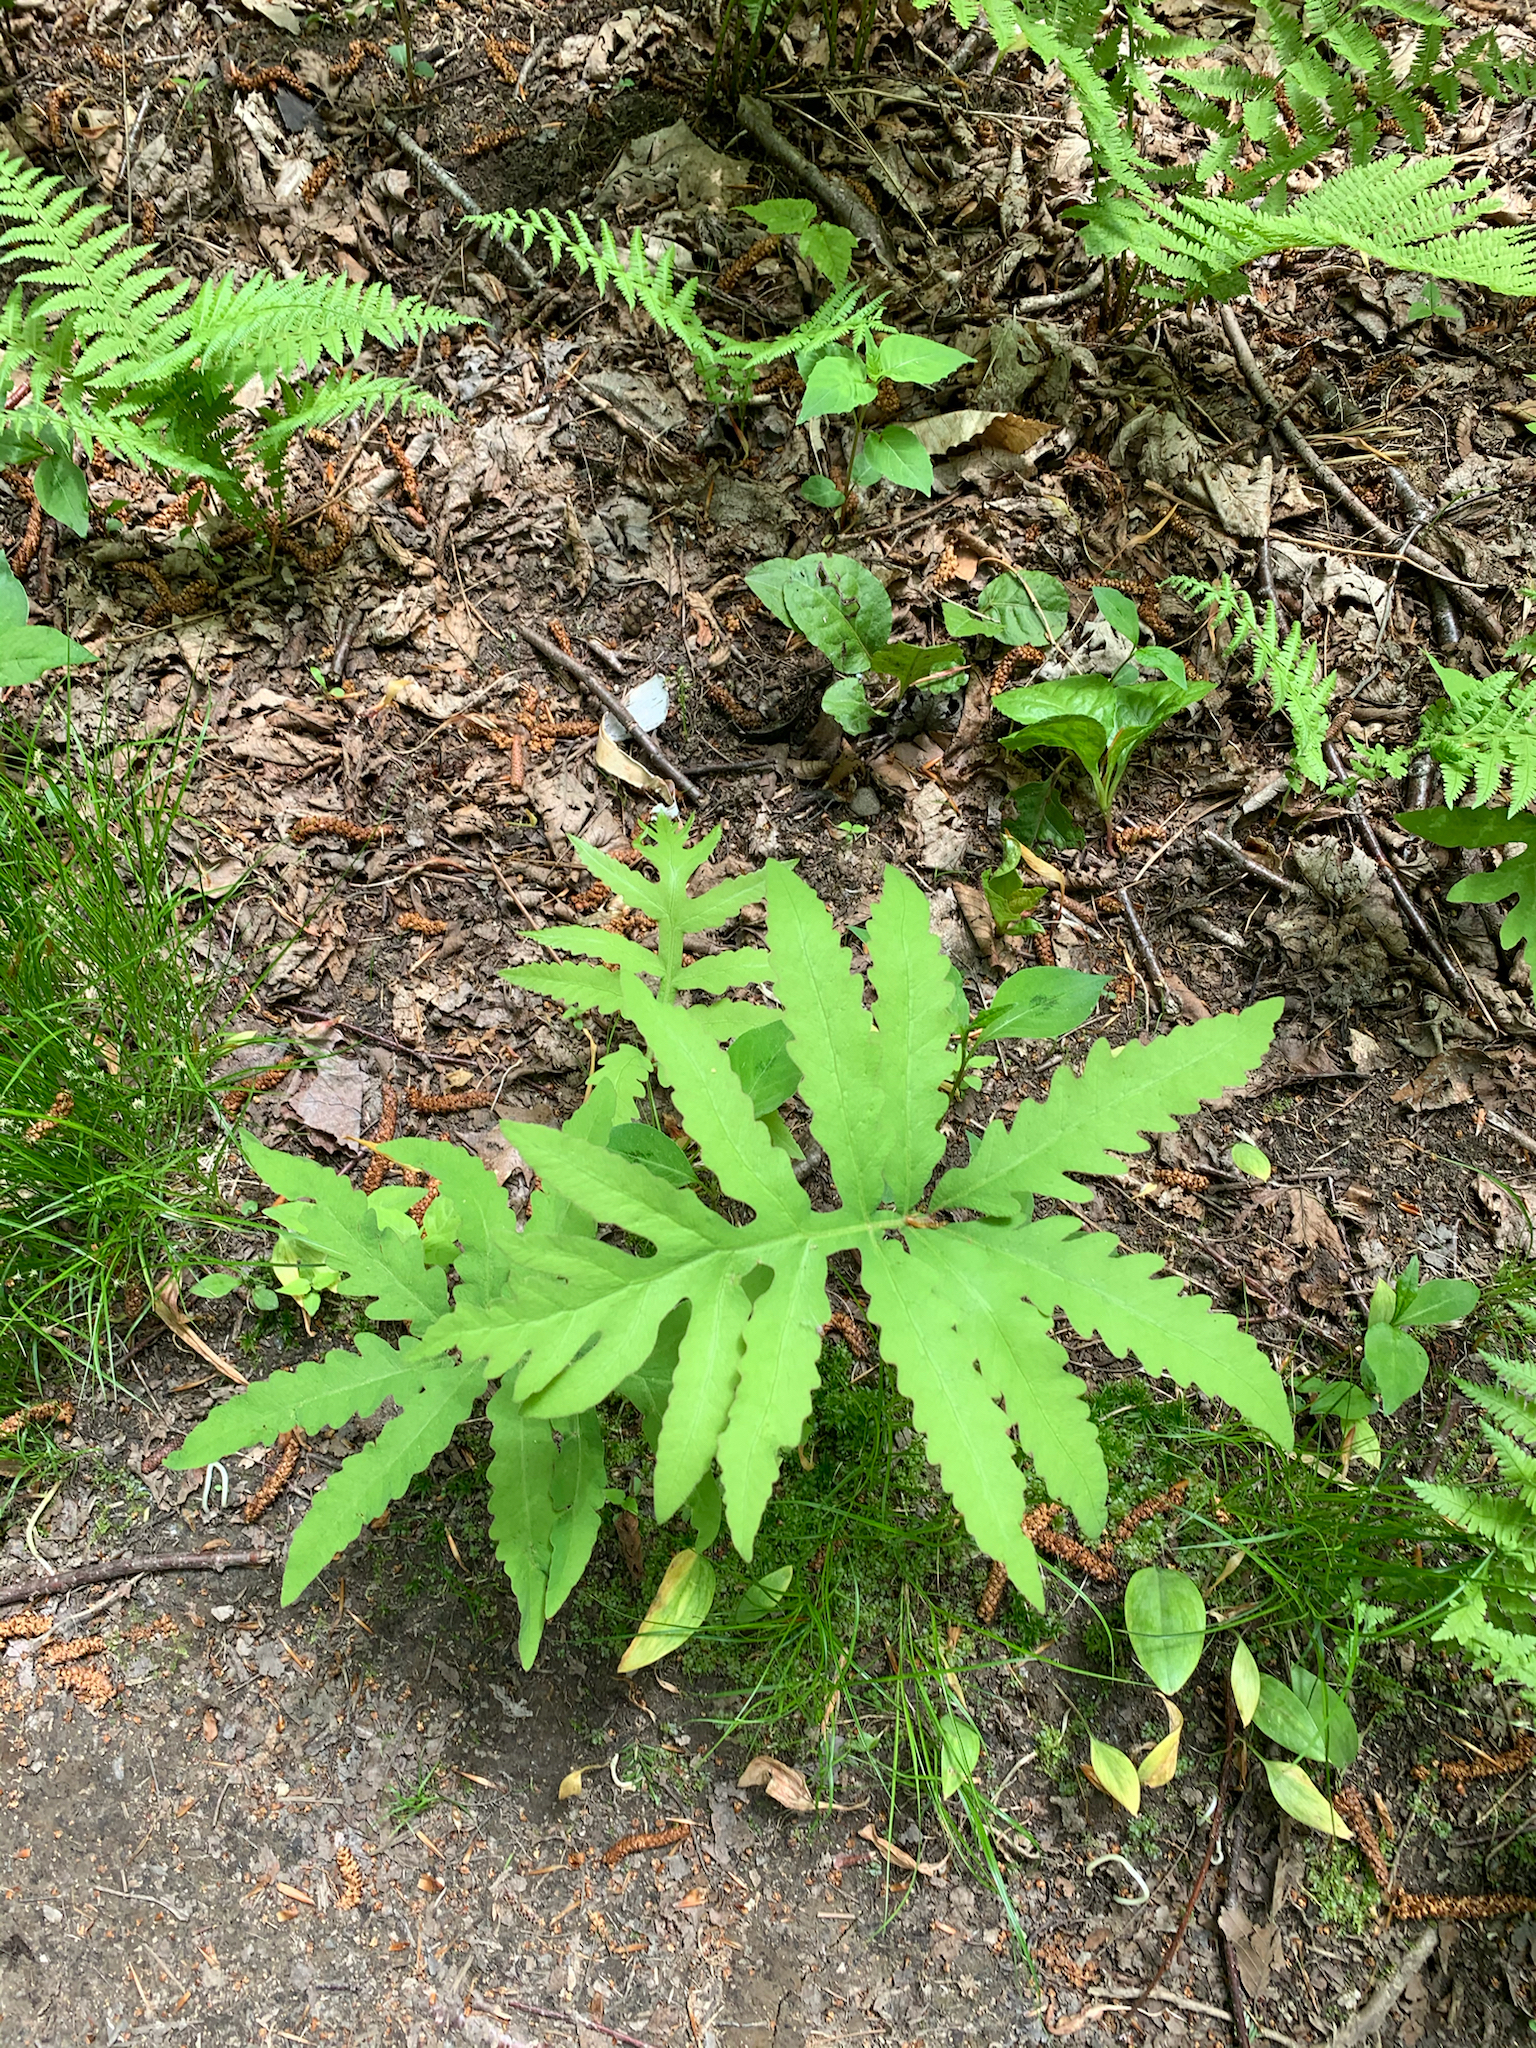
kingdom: Plantae
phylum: Tracheophyta
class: Polypodiopsida
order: Polypodiales
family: Onocleaceae
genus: Onoclea
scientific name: Onoclea sensibilis
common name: Sensitive fern
